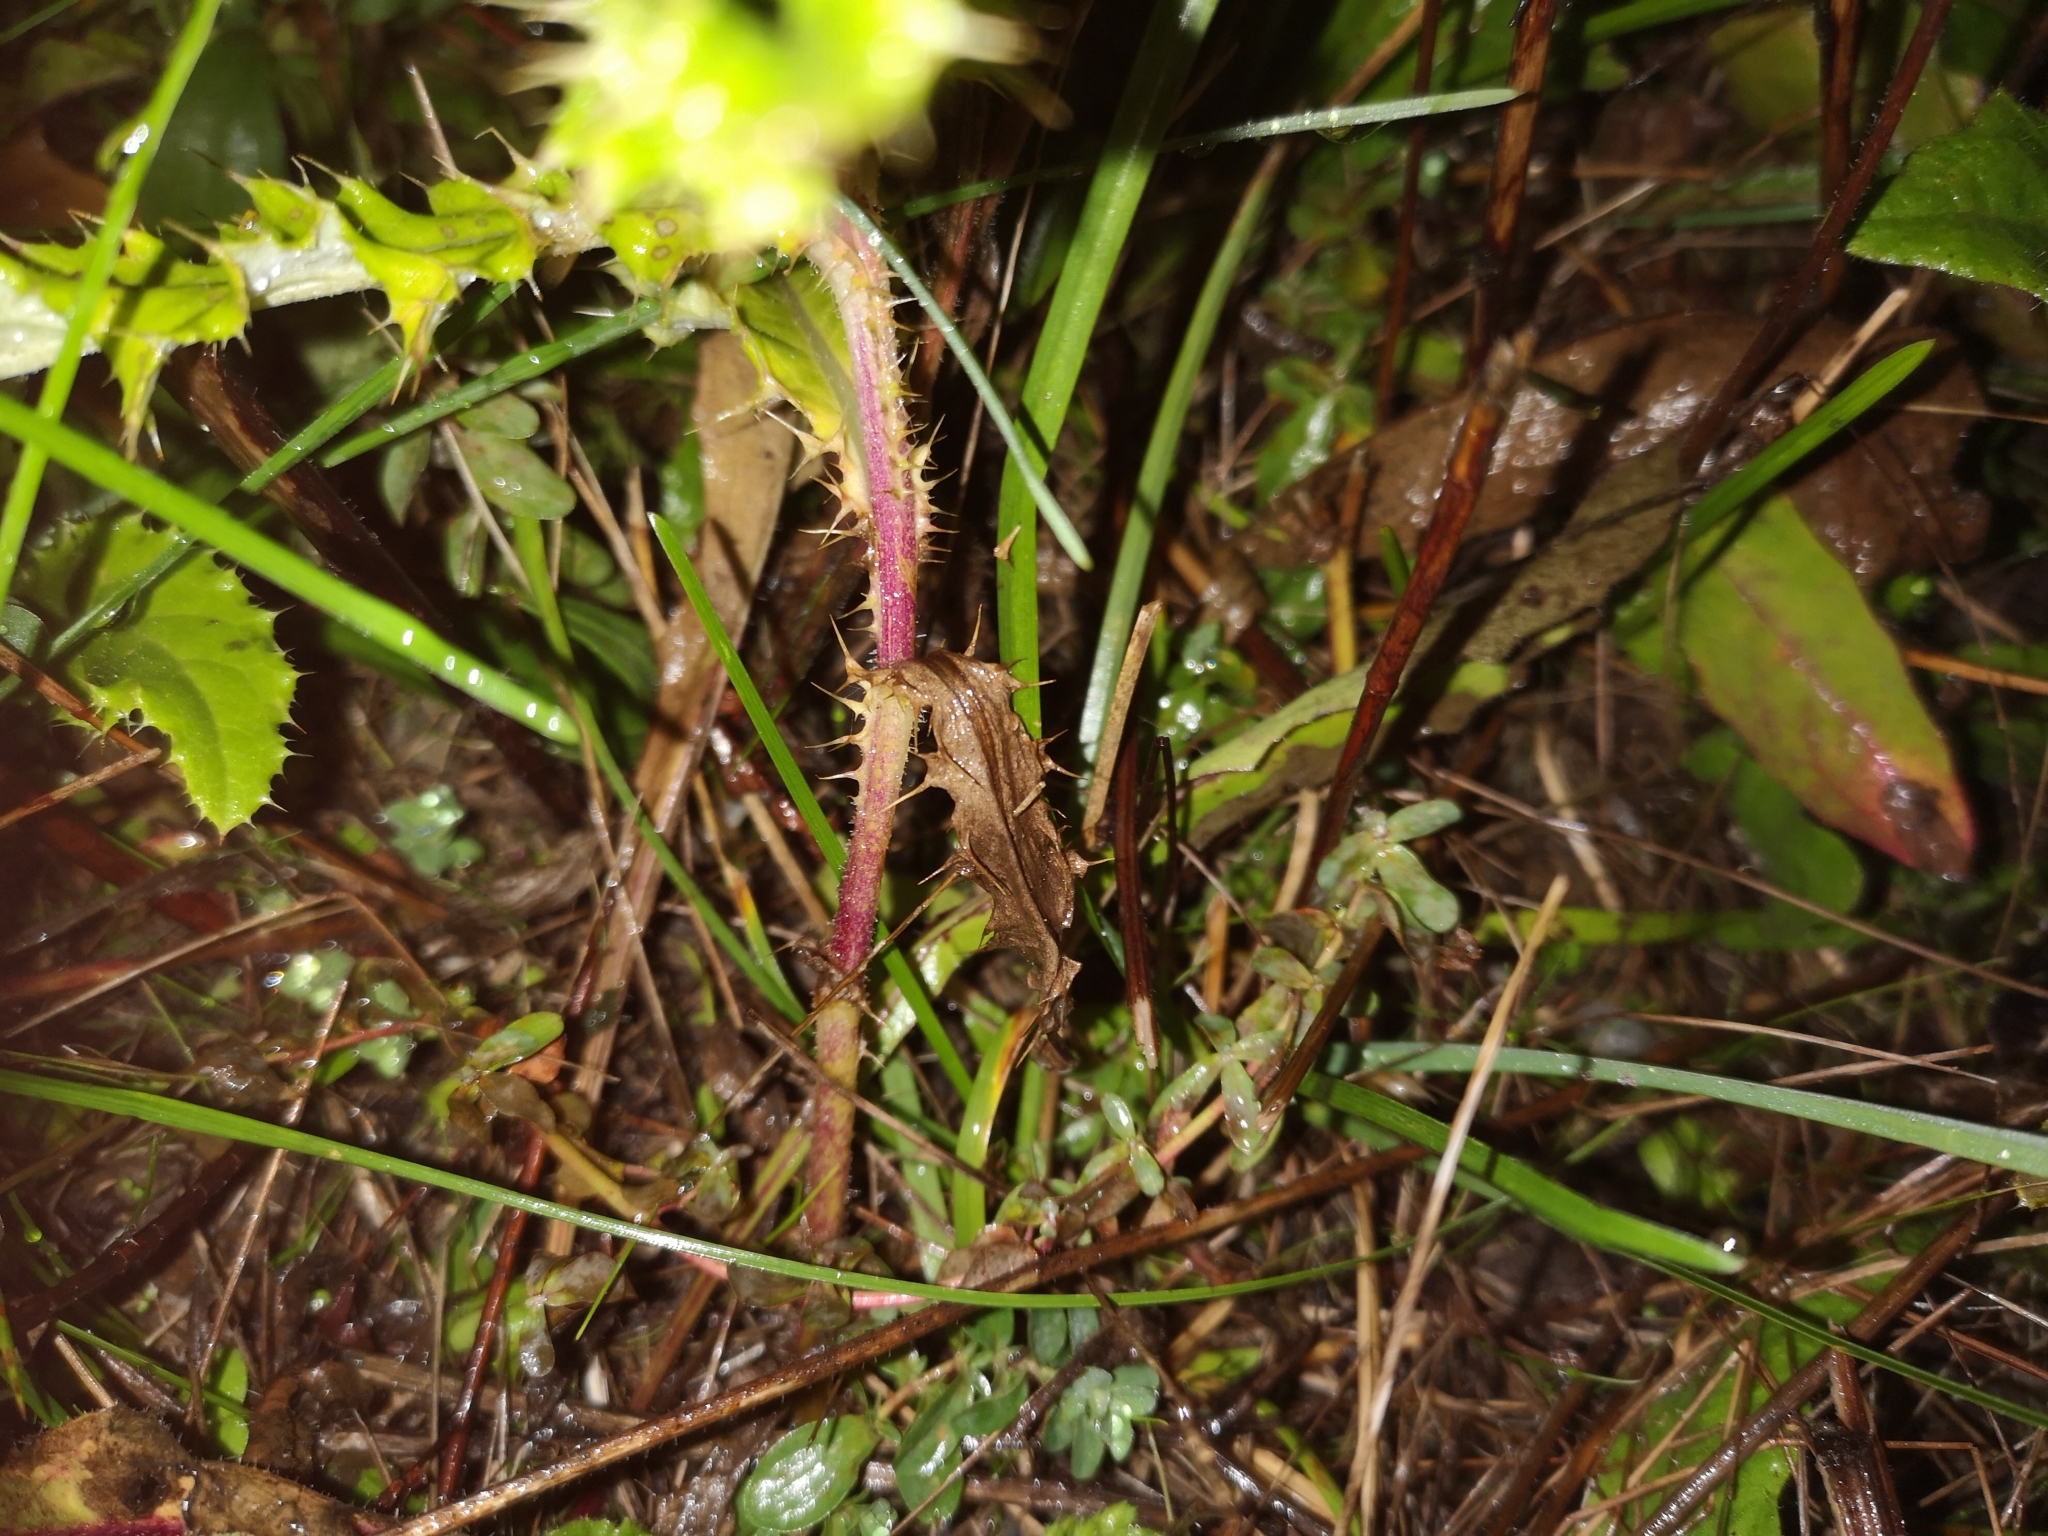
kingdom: Plantae
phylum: Tracheophyta
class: Magnoliopsida
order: Asterales
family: Asteraceae
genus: Cirsium
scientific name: Cirsium arvense
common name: Creeping thistle
